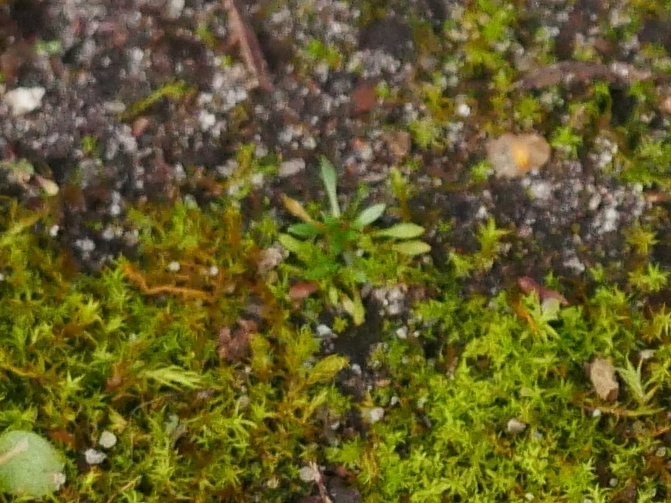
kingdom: Plantae
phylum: Tracheophyta
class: Magnoliopsida
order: Brassicales
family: Brassicaceae
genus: Draba
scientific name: Draba verna
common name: Spring draba
